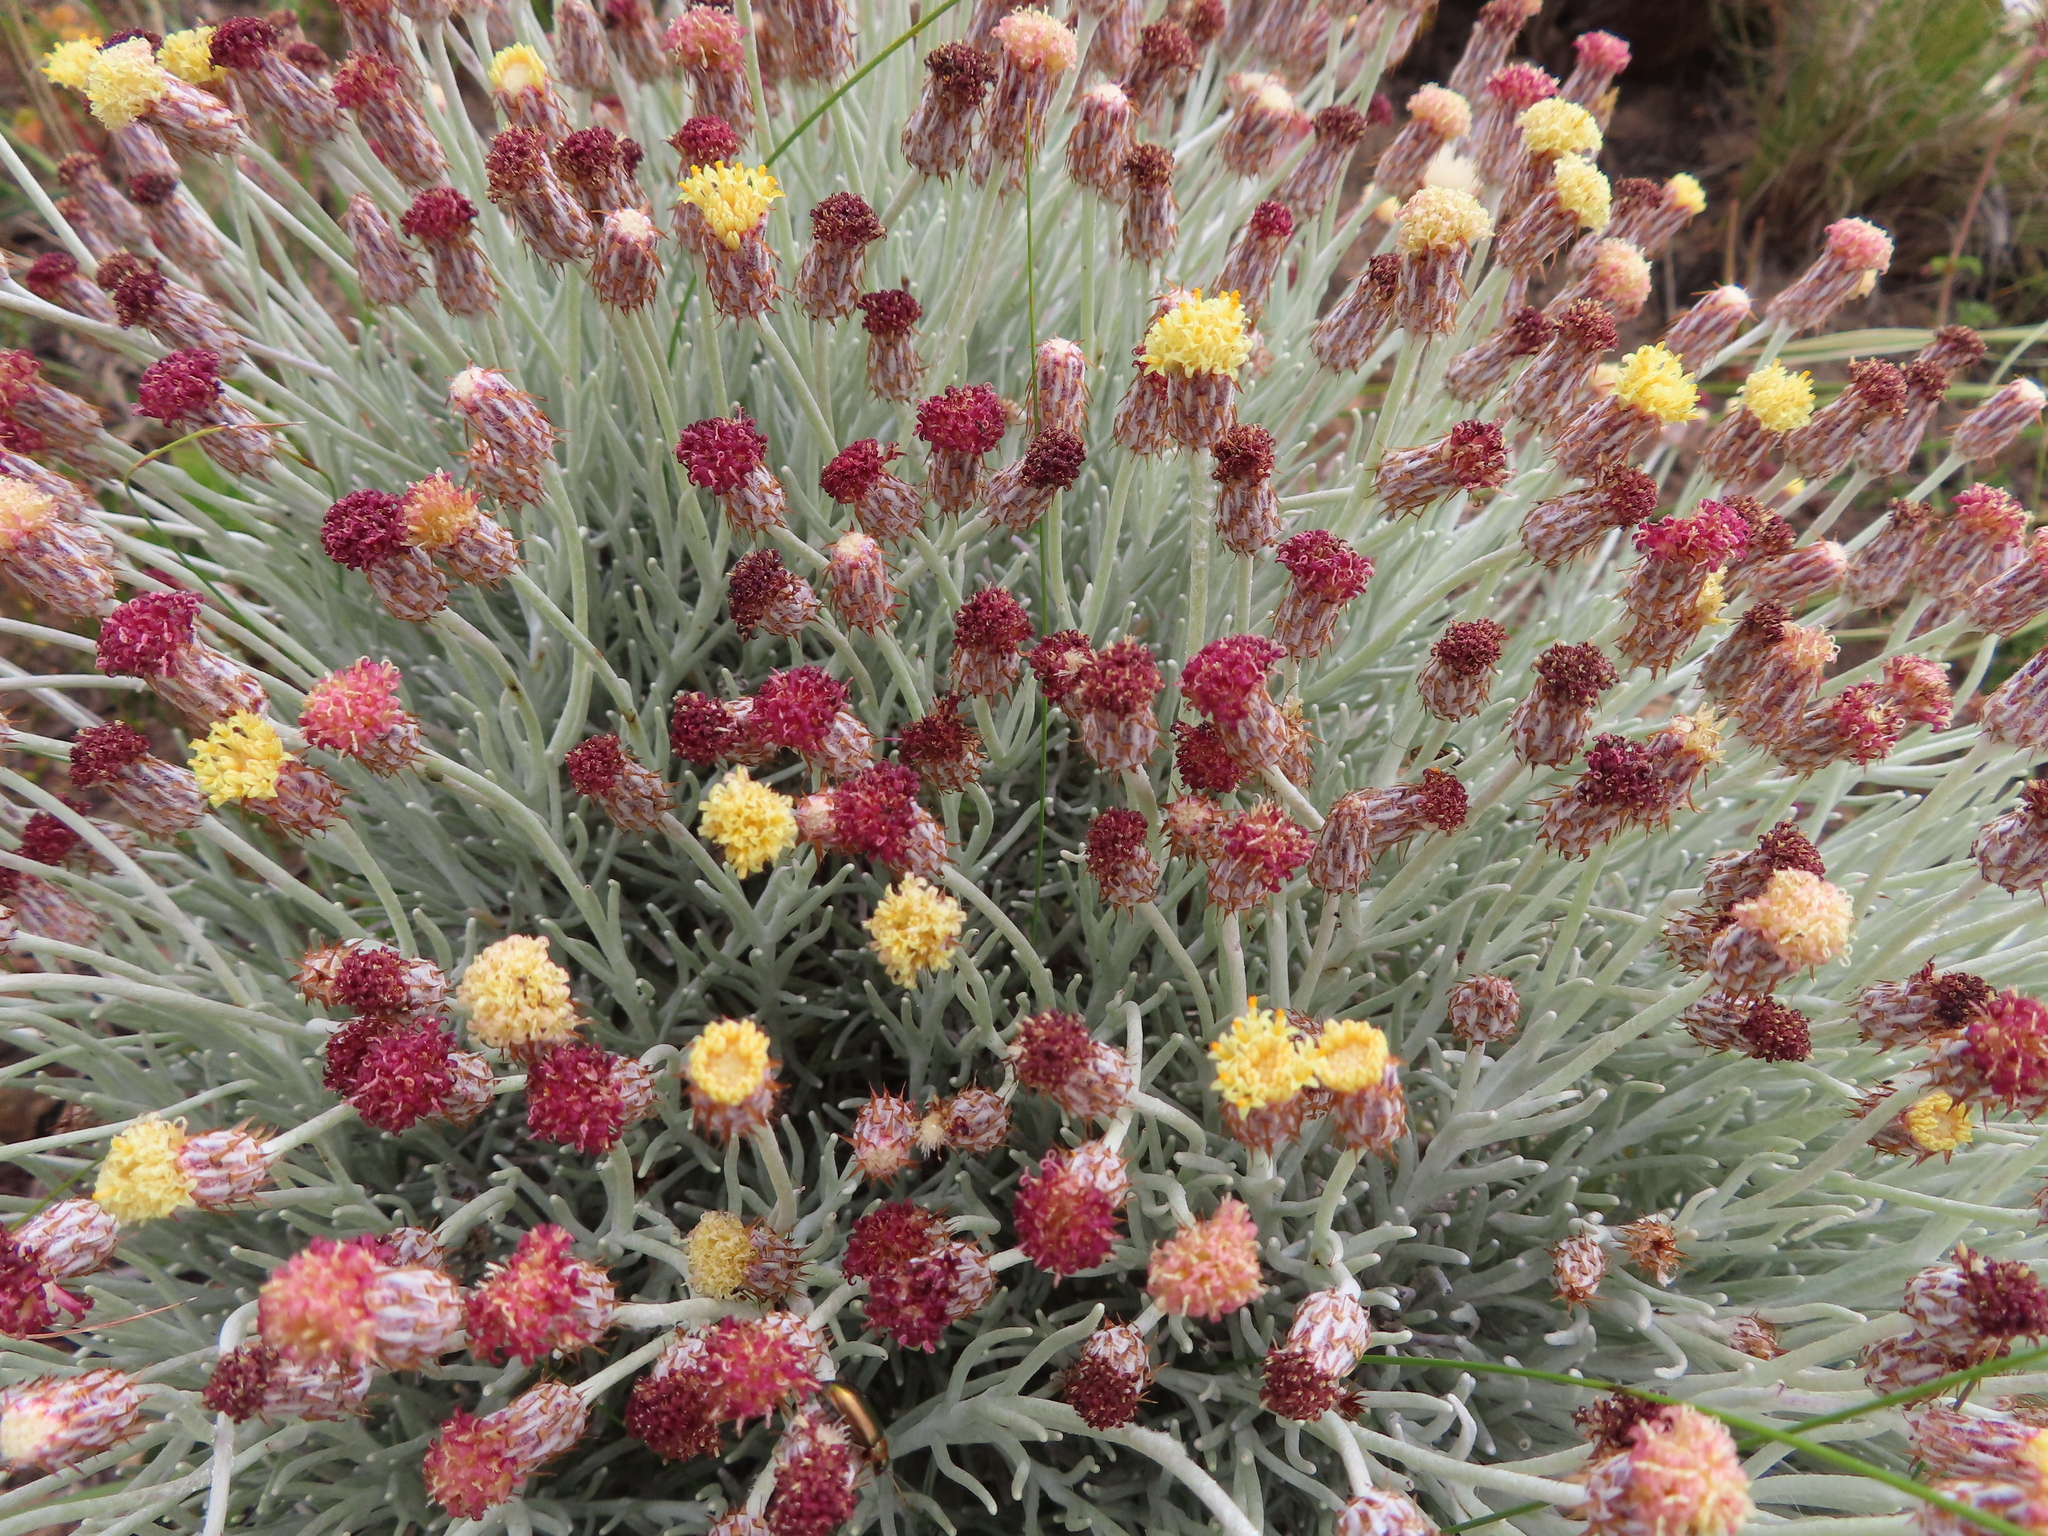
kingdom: Plantae
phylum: Tracheophyta
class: Magnoliopsida
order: Asterales
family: Asteraceae
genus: Syncarpha
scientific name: Syncarpha gnaphaloides
